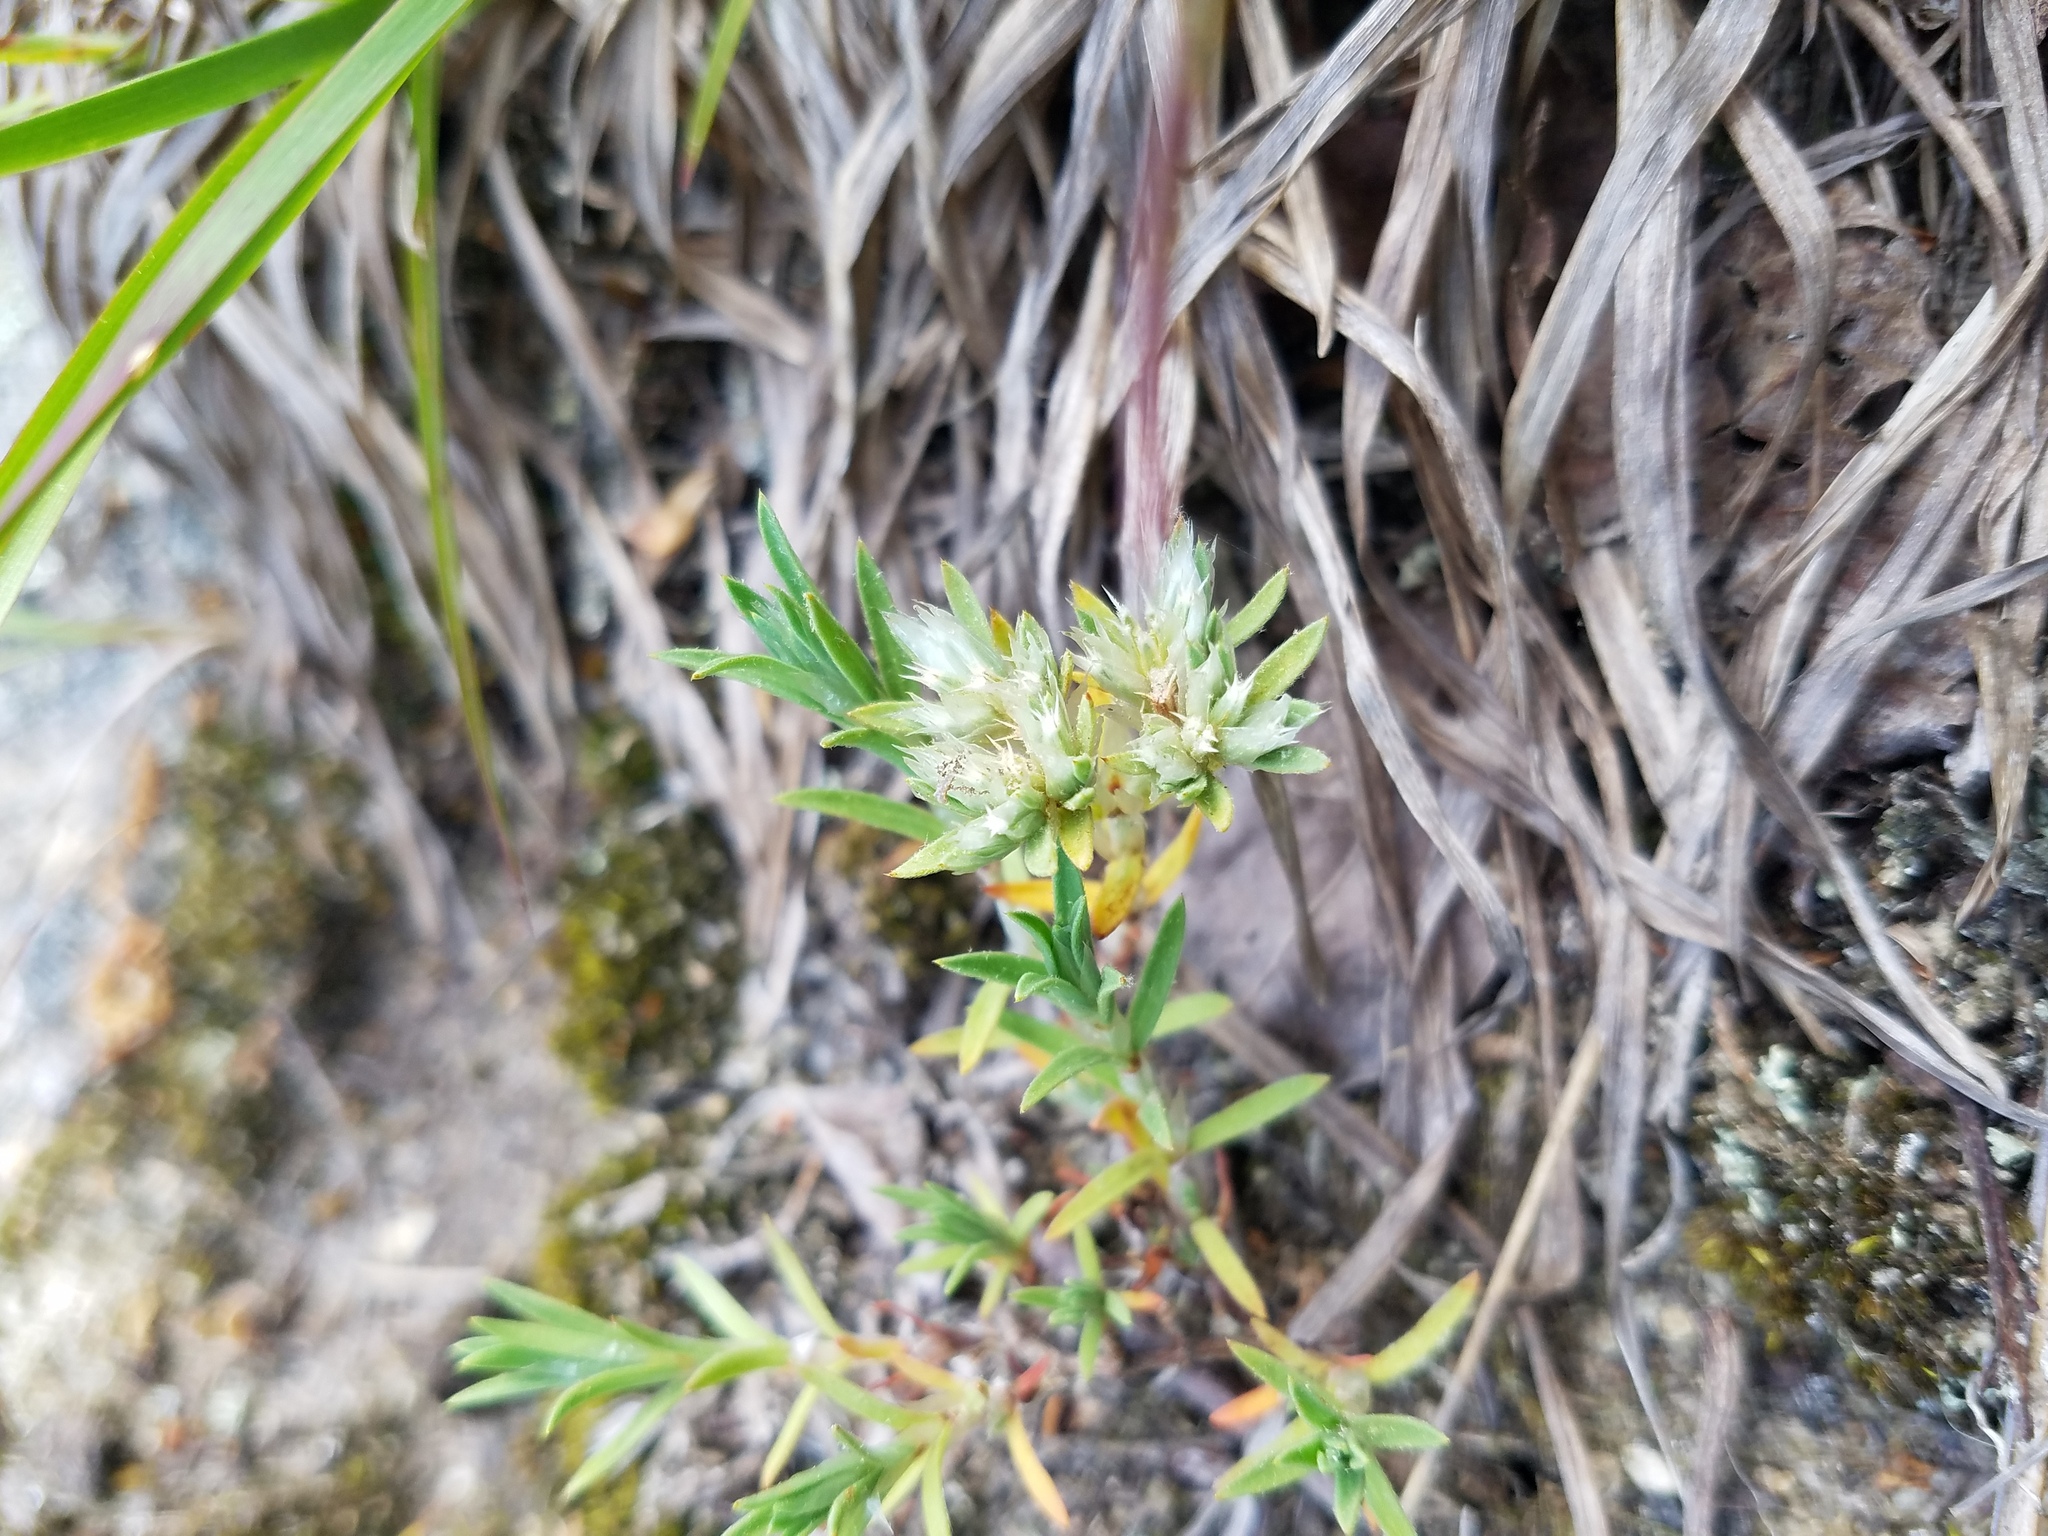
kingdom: Plantae
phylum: Tracheophyta
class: Magnoliopsida
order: Caryophyllales
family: Caryophyllaceae
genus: Paronychia
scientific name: Paronychia argyrocoma
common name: Silverling
